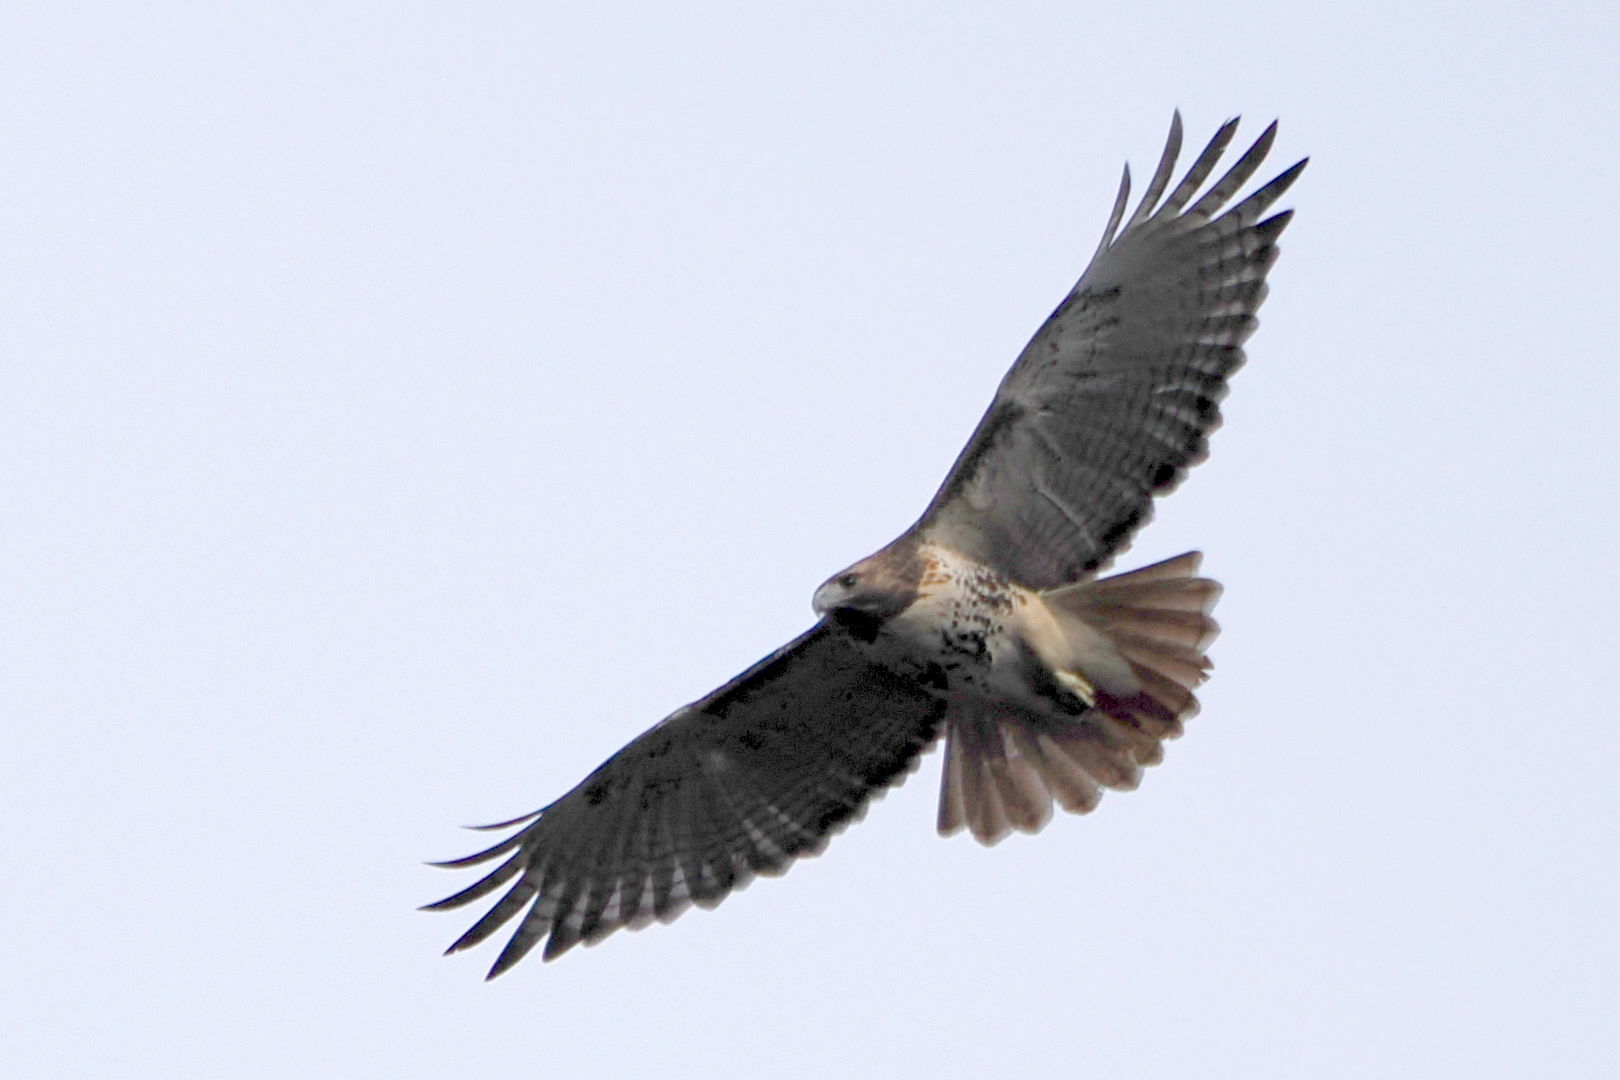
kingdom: Animalia
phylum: Chordata
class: Aves
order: Accipitriformes
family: Accipitridae
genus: Buteo
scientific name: Buteo jamaicensis
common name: Red-tailed hawk
